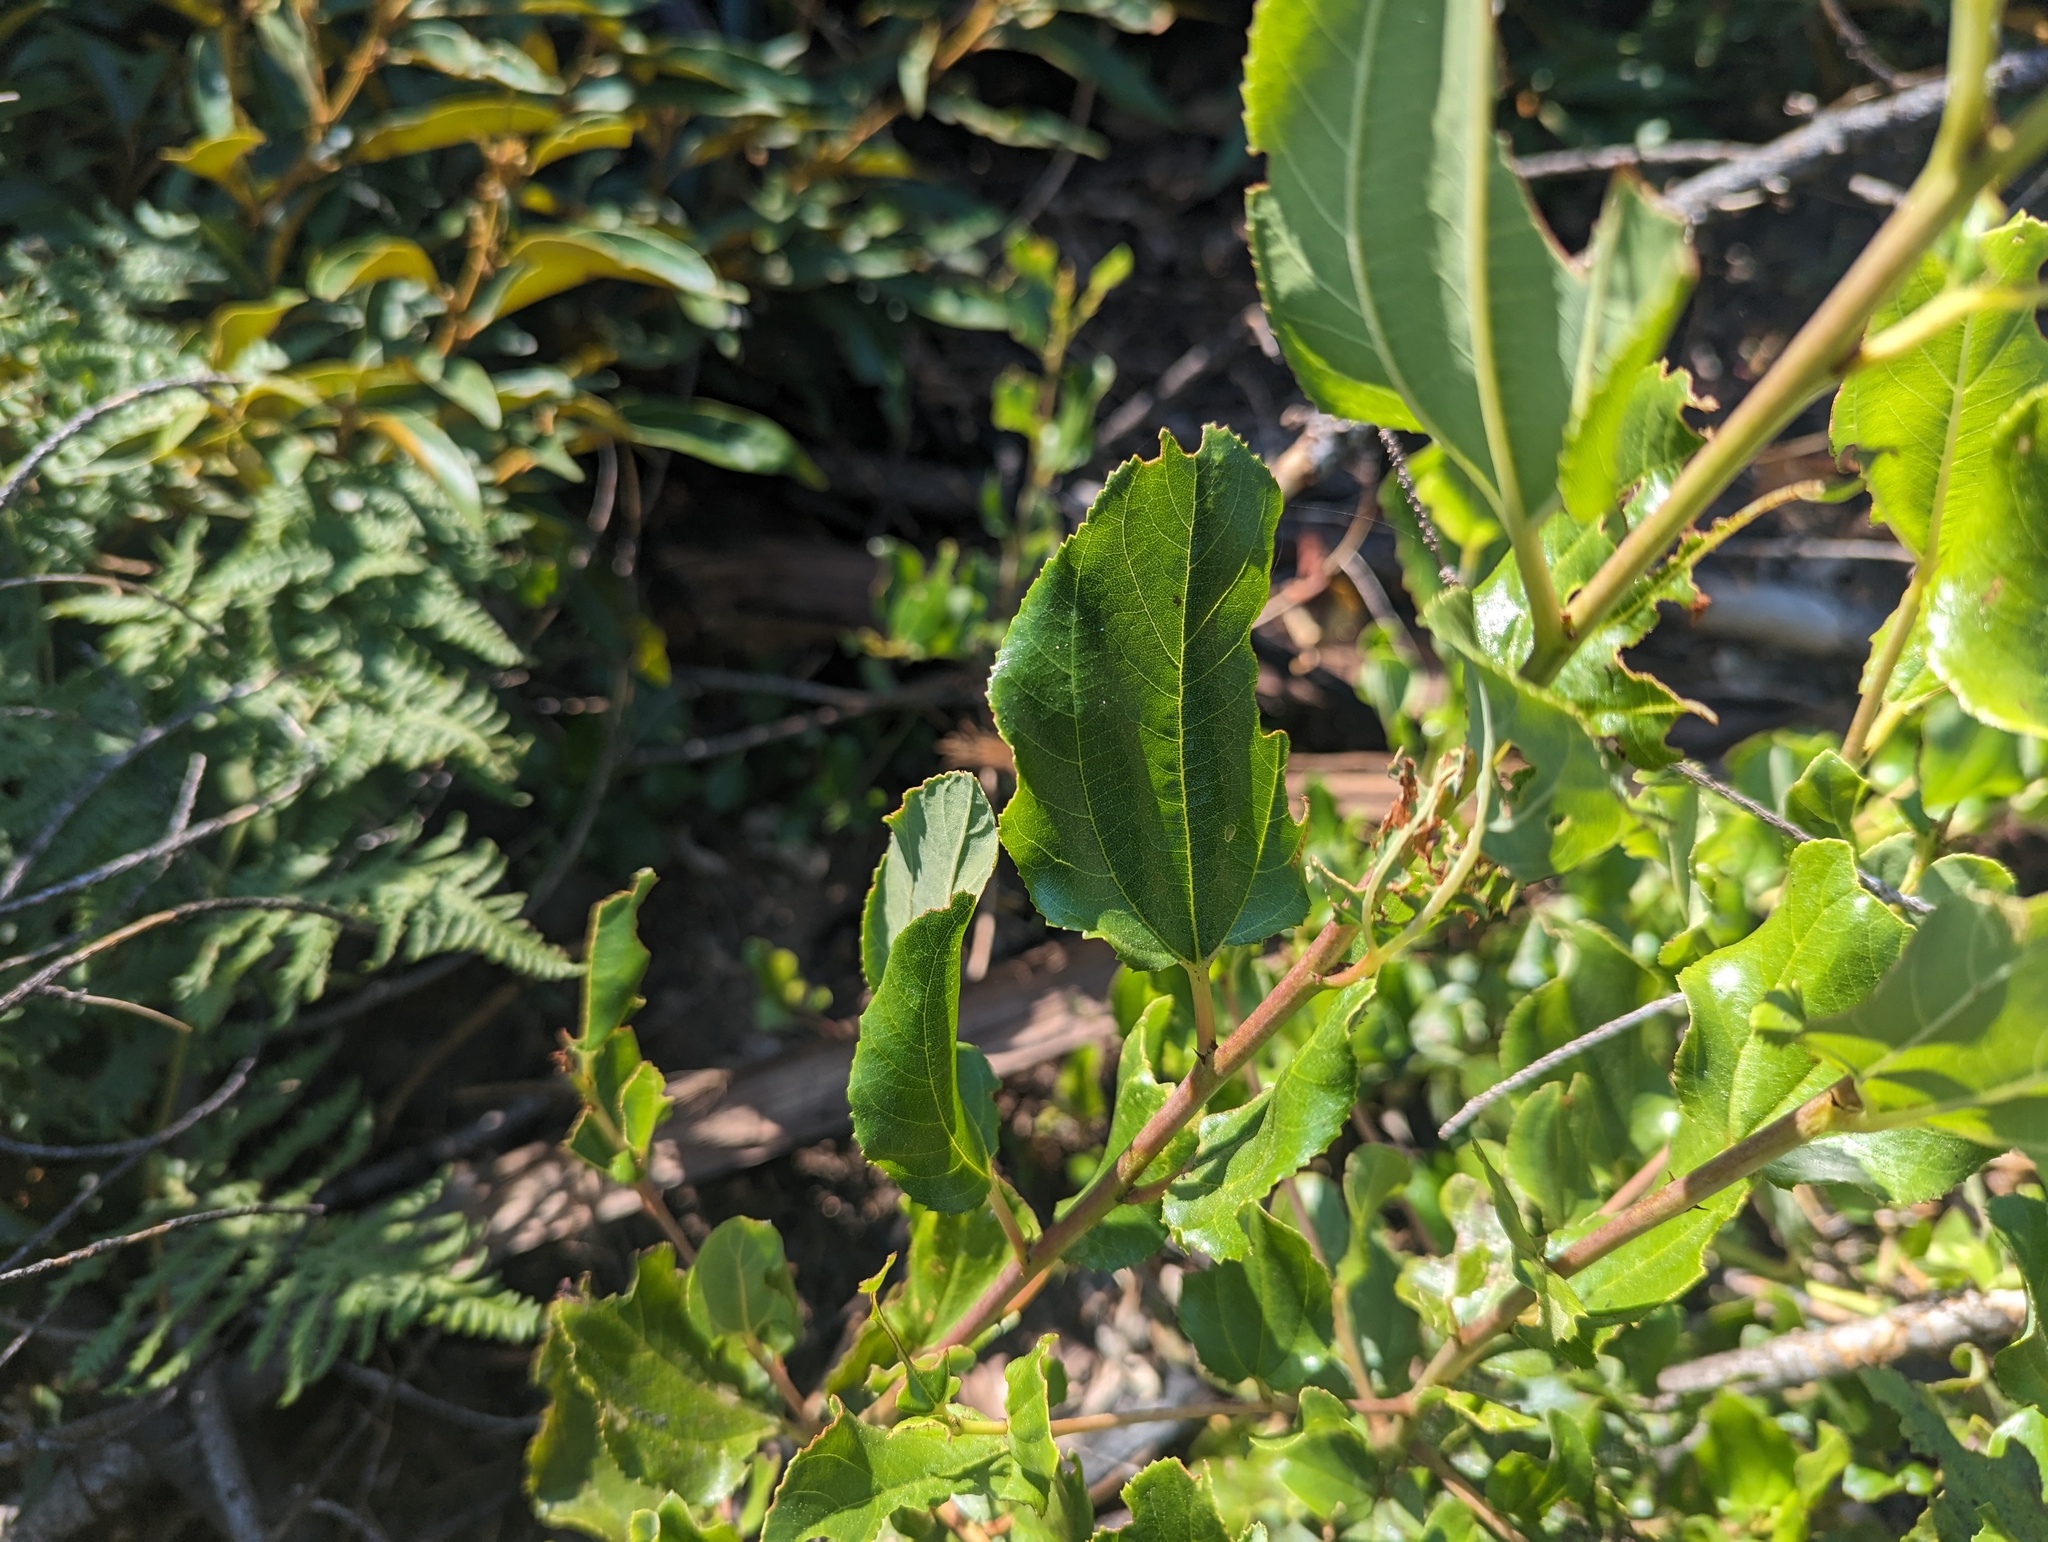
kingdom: Plantae
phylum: Tracheophyta
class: Magnoliopsida
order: Rosales
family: Rhamnaceae
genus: Ceanothus
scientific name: Ceanothus velutinus
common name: Snowbrush
